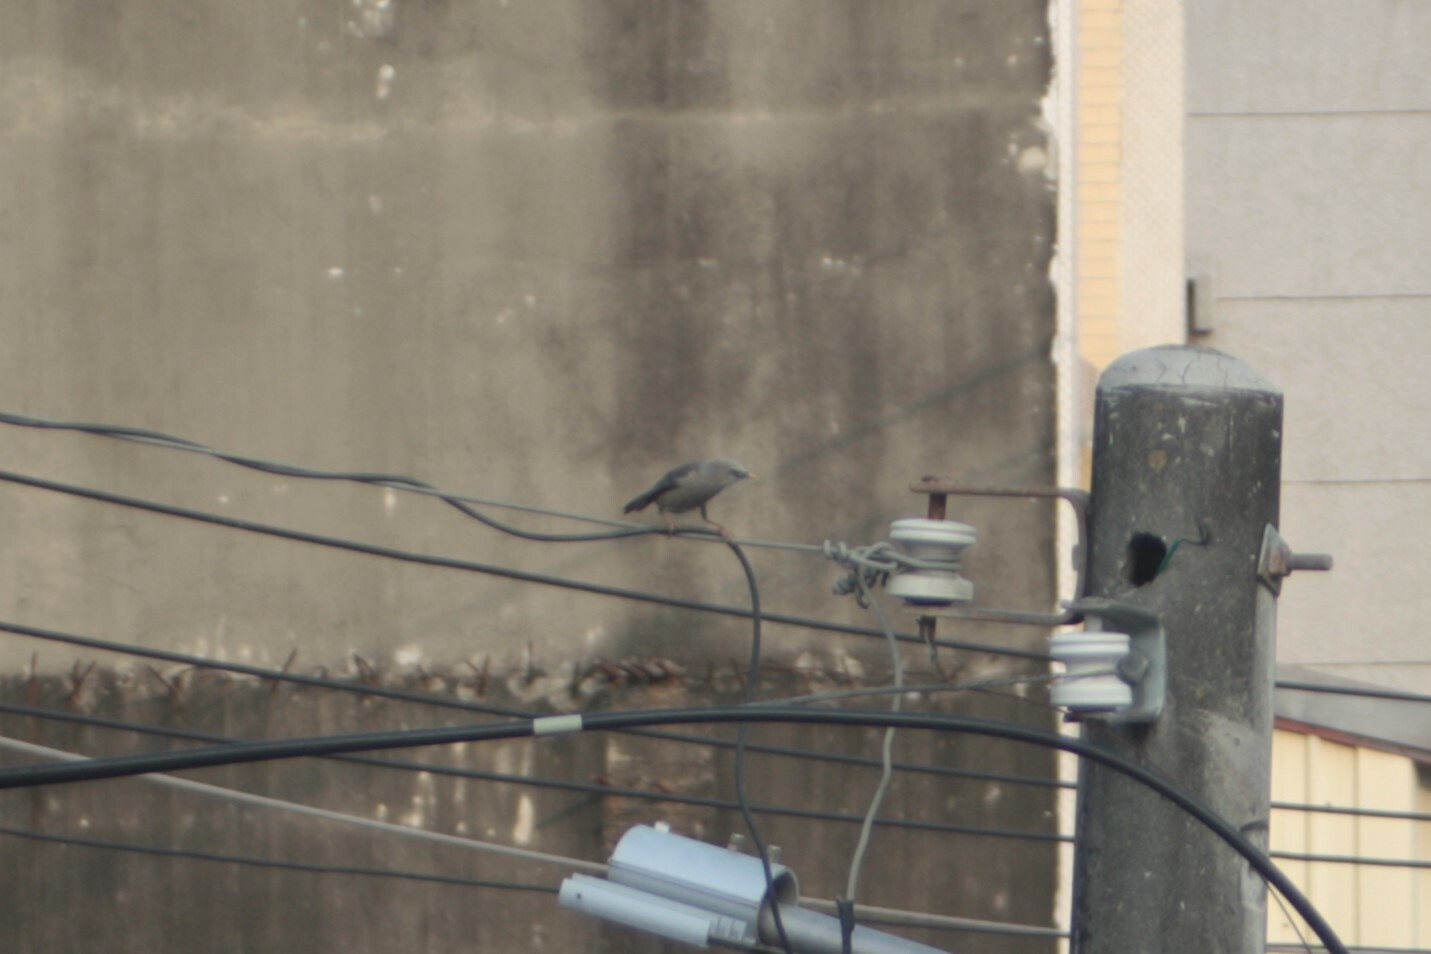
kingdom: Animalia
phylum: Chordata
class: Aves
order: Passeriformes
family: Sturnidae
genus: Sturnia
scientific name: Sturnia malabarica
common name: Chestnut-tailed starling
